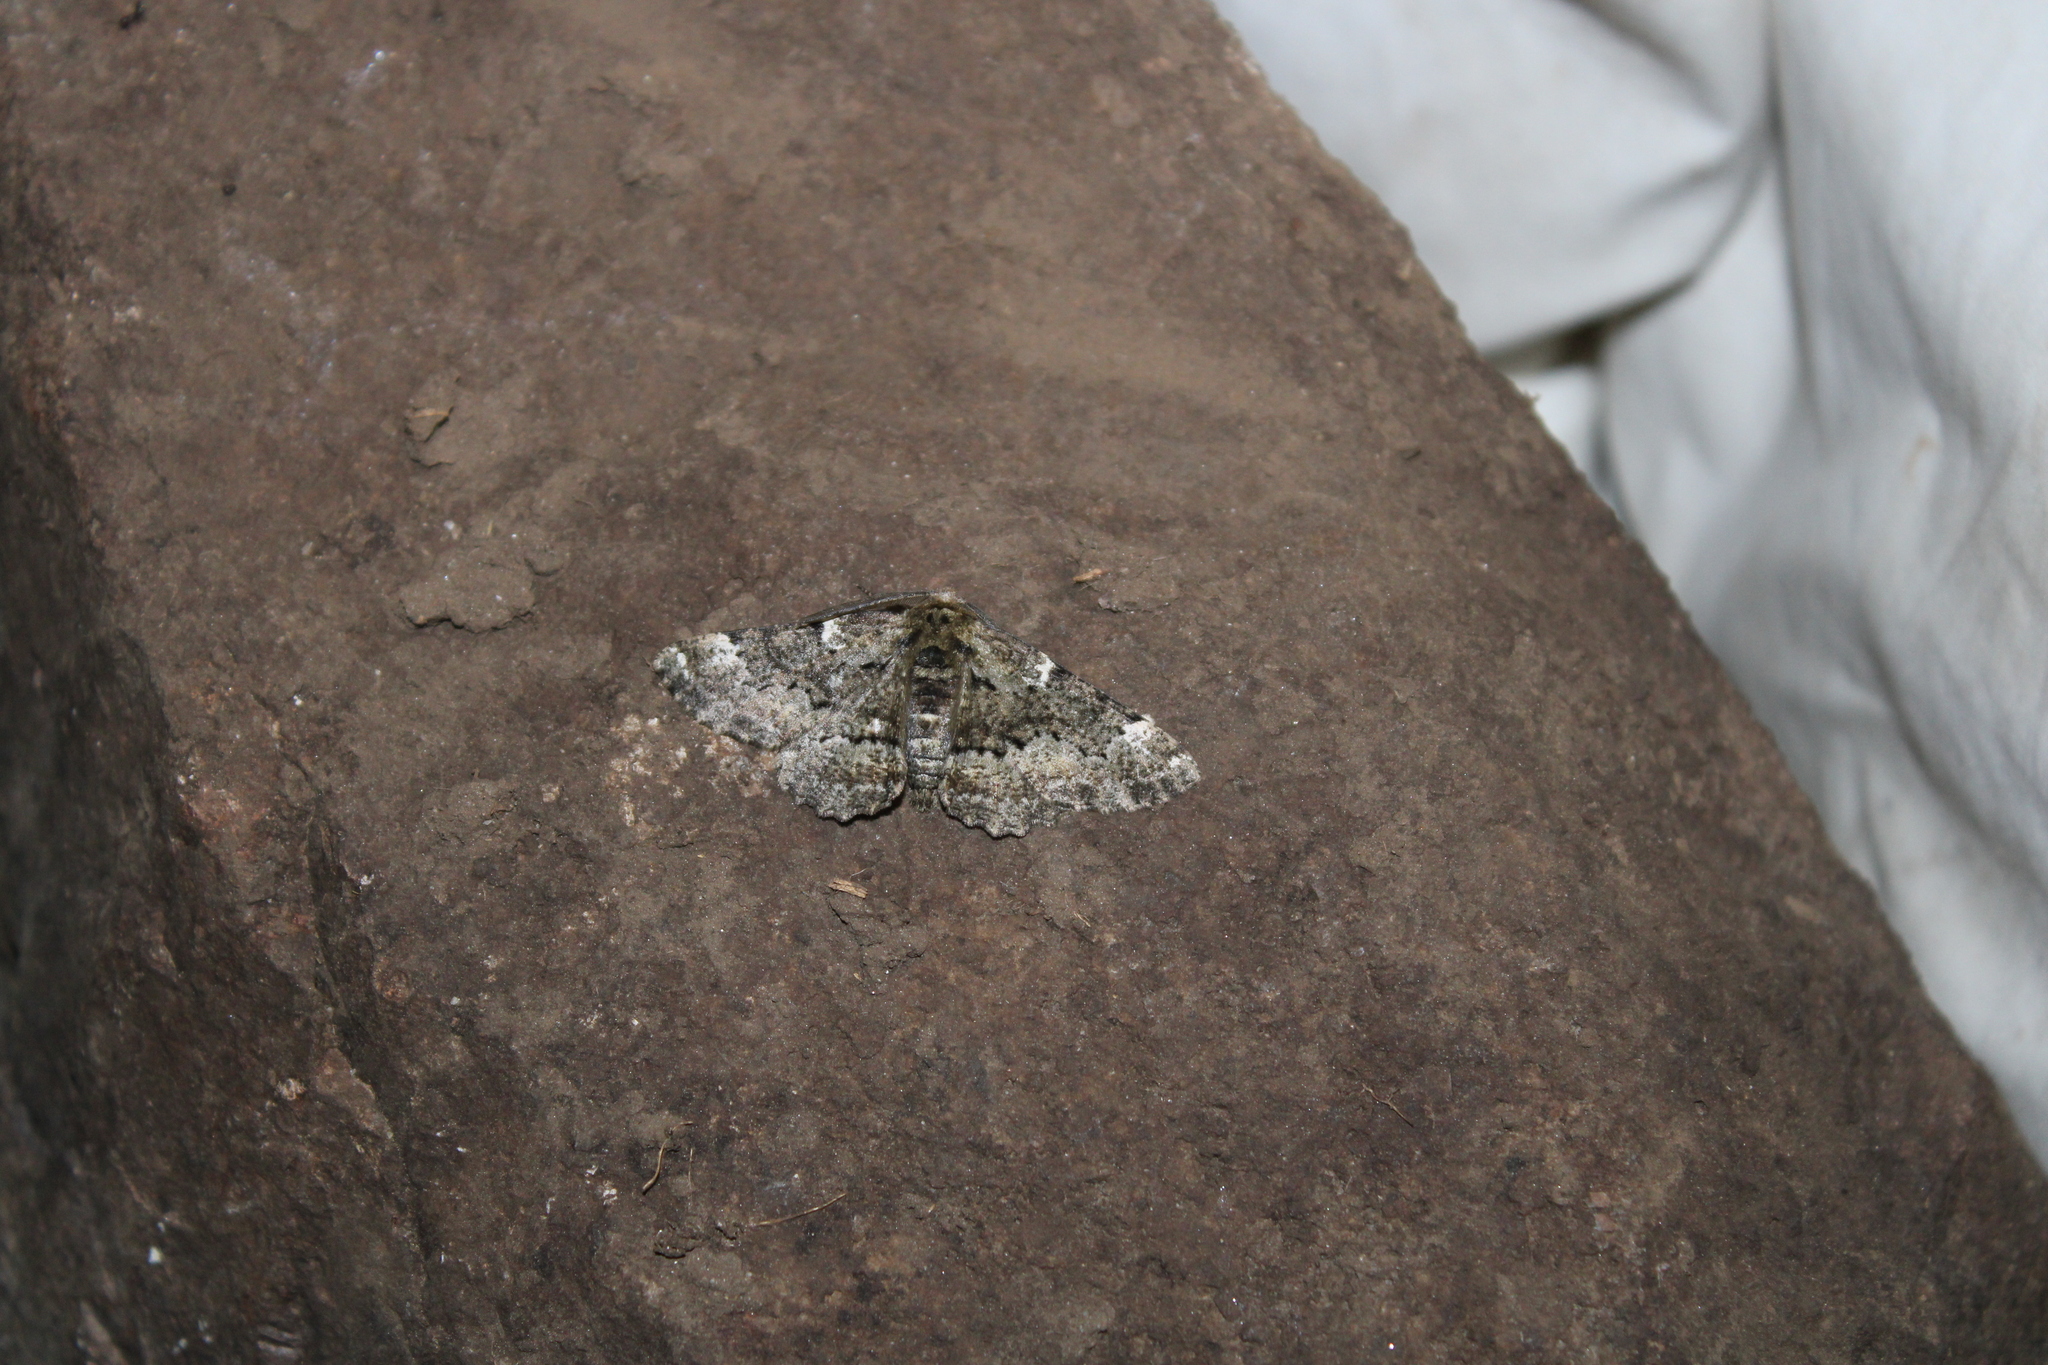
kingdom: Animalia
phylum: Arthropoda
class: Insecta
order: Lepidoptera
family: Geometridae
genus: Phaeoura
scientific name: Phaeoura quernaria
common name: Oak beauty
